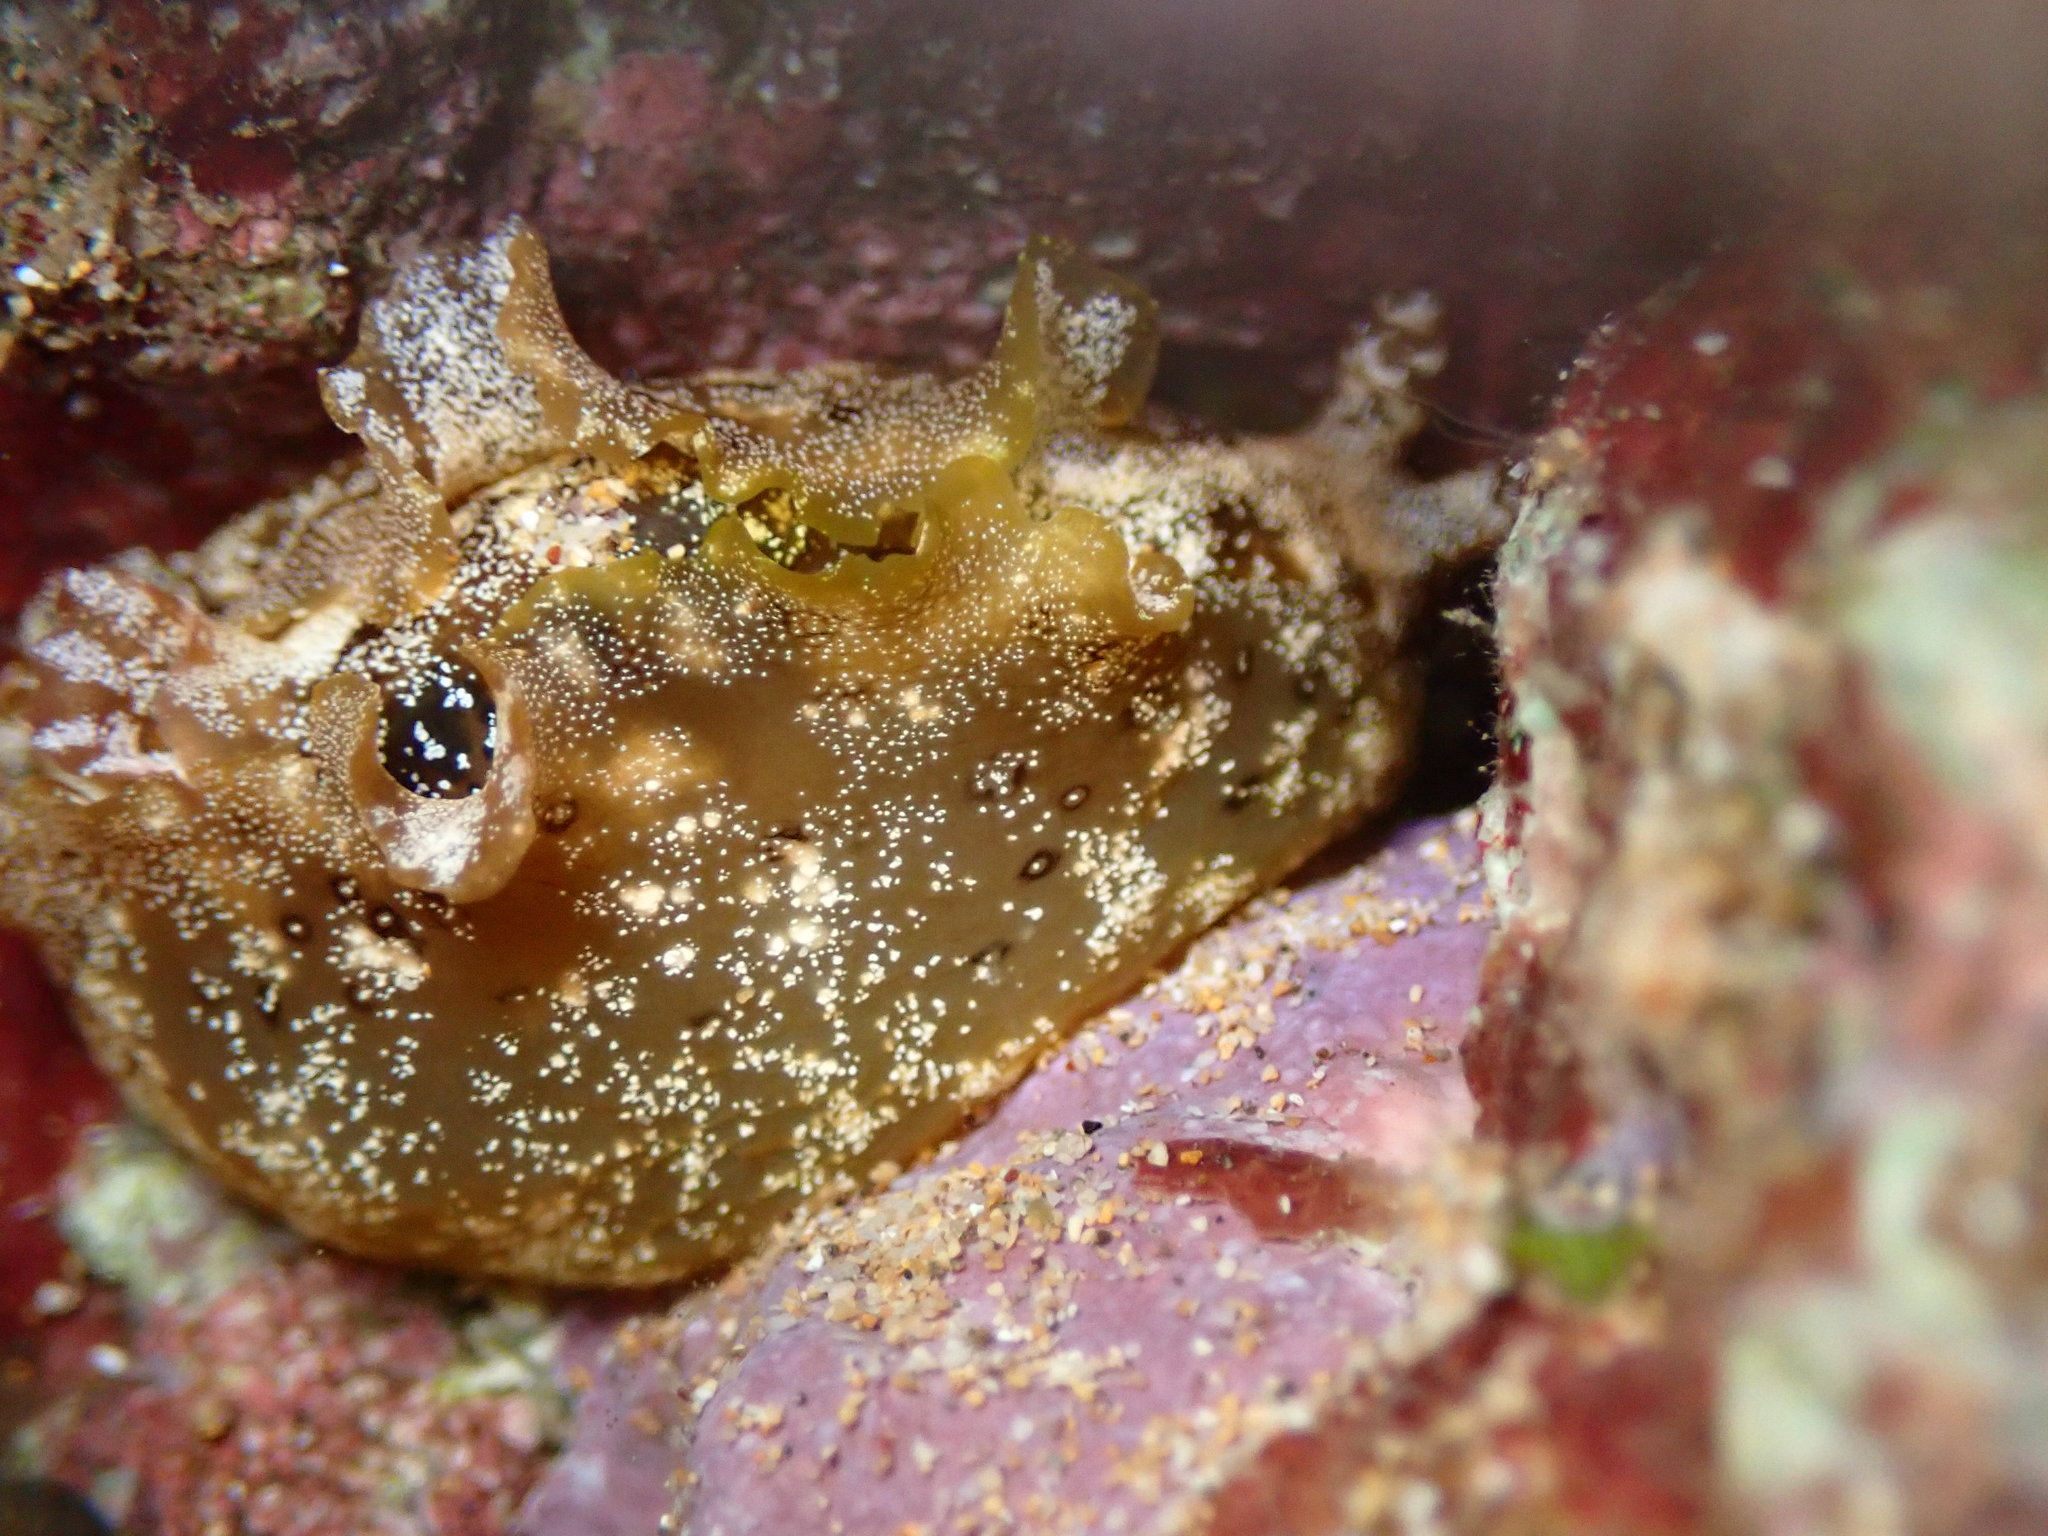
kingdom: Animalia
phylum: Mollusca
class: Gastropoda
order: Aplysiida
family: Aplysiidae
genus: Aplysia
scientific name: Aplysia oculifera
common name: Spotted sea hare
